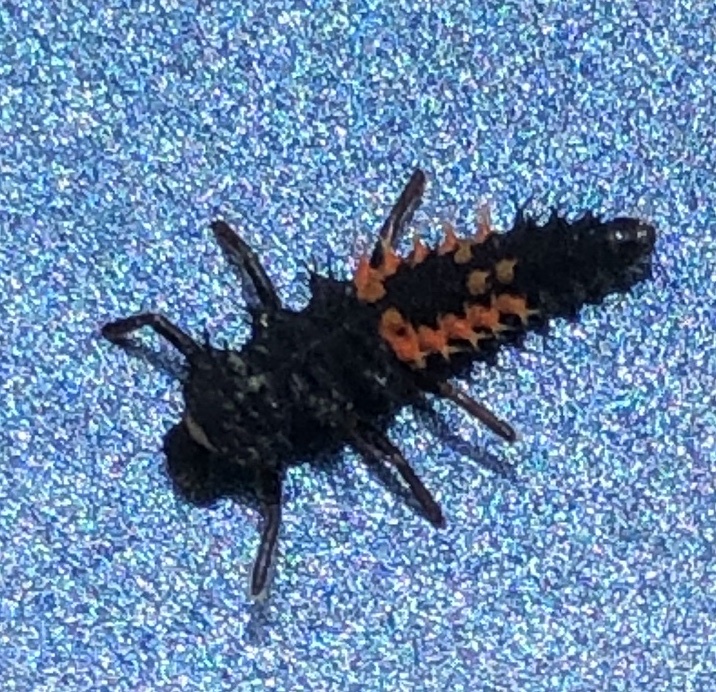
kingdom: Animalia
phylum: Arthropoda
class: Insecta
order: Coleoptera
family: Coccinellidae
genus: Harmonia
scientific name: Harmonia axyridis
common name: Harlequin ladybird
